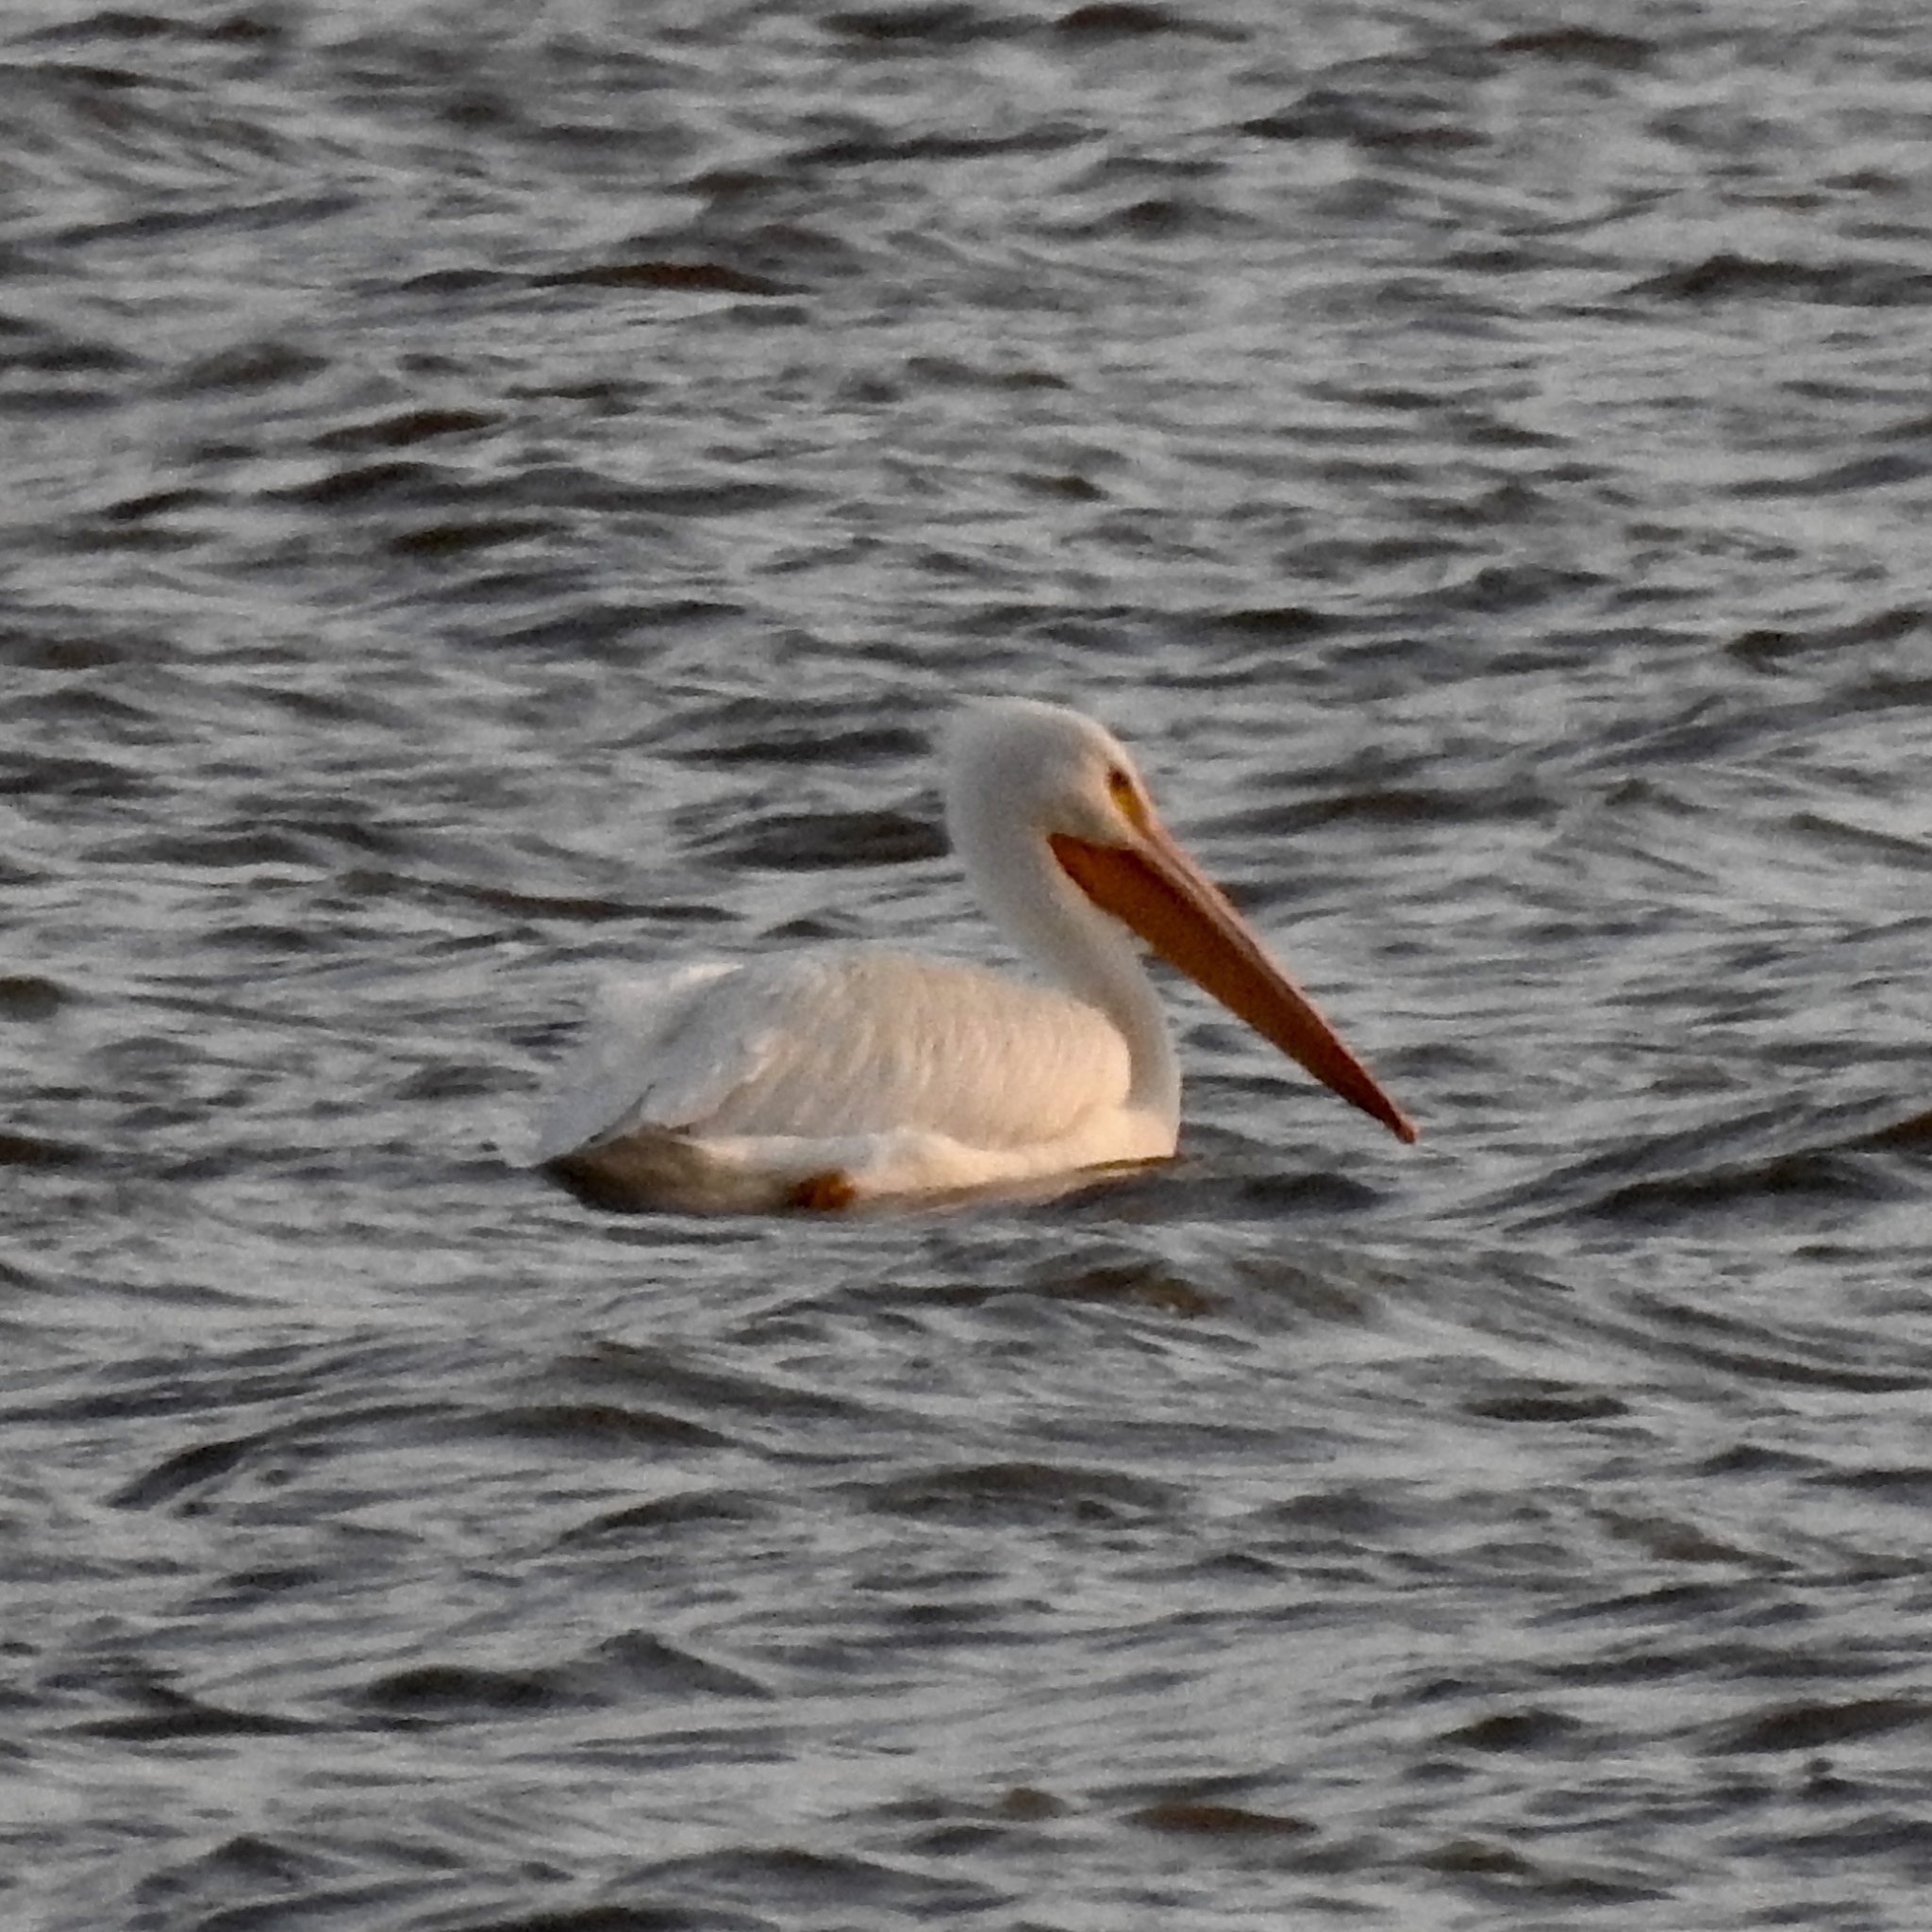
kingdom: Animalia
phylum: Chordata
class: Aves
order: Pelecaniformes
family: Pelecanidae
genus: Pelecanus
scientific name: Pelecanus erythrorhynchos
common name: American white pelican
